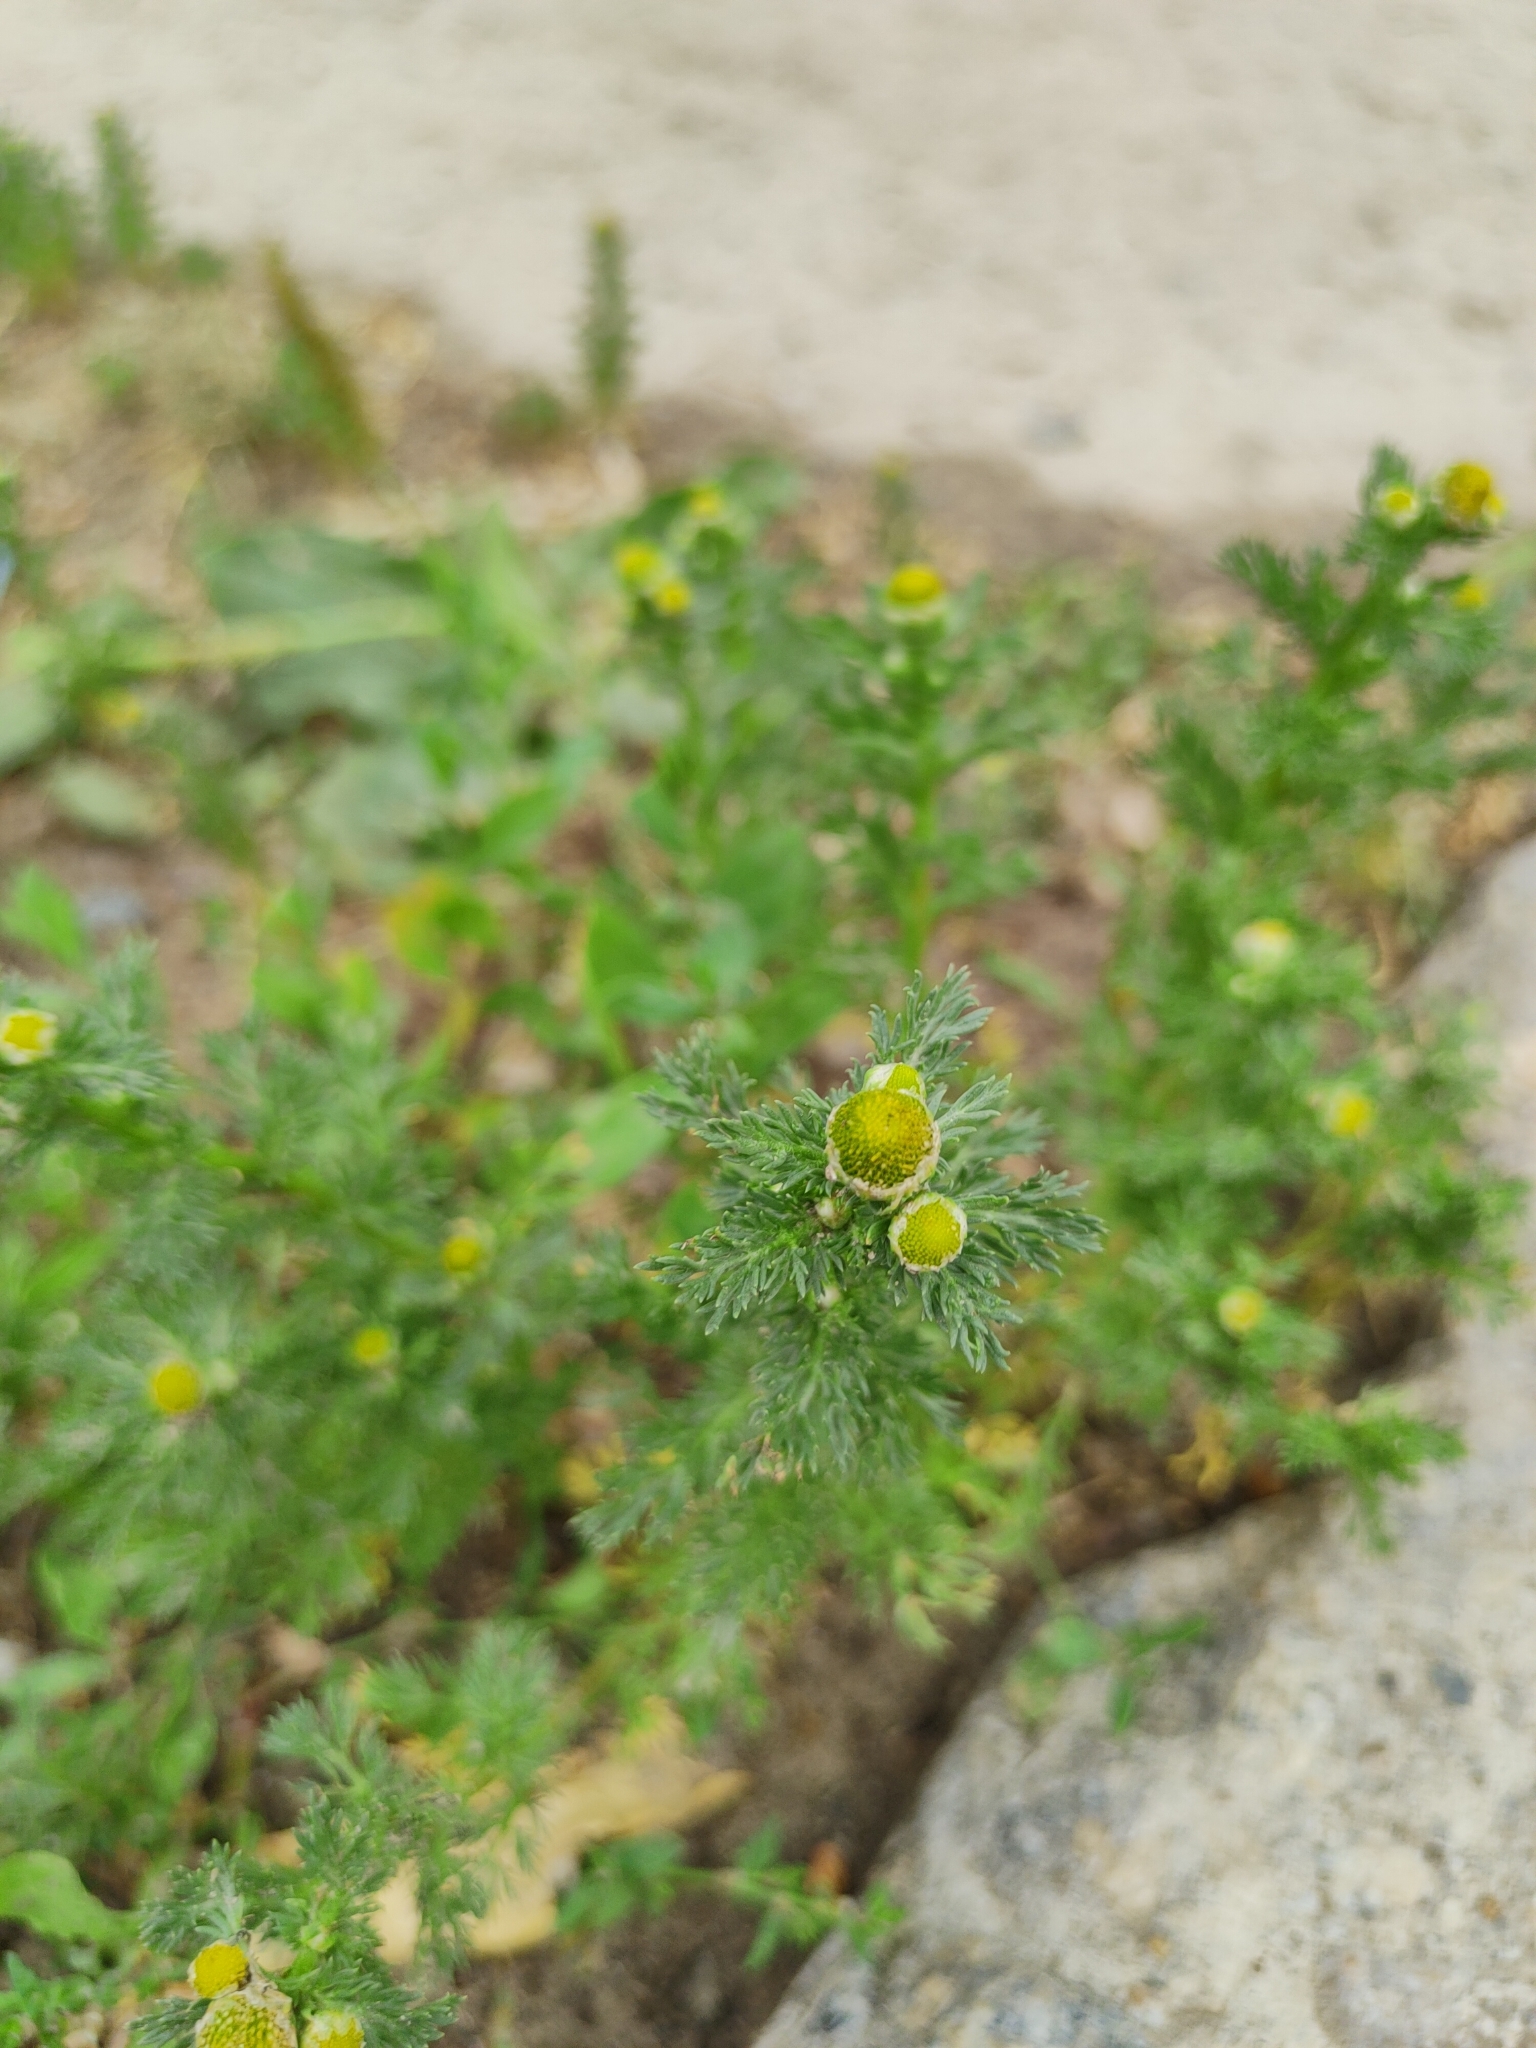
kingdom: Plantae
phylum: Tracheophyta
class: Magnoliopsida
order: Asterales
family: Asteraceae
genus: Matricaria
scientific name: Matricaria discoidea
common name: Disc mayweed
